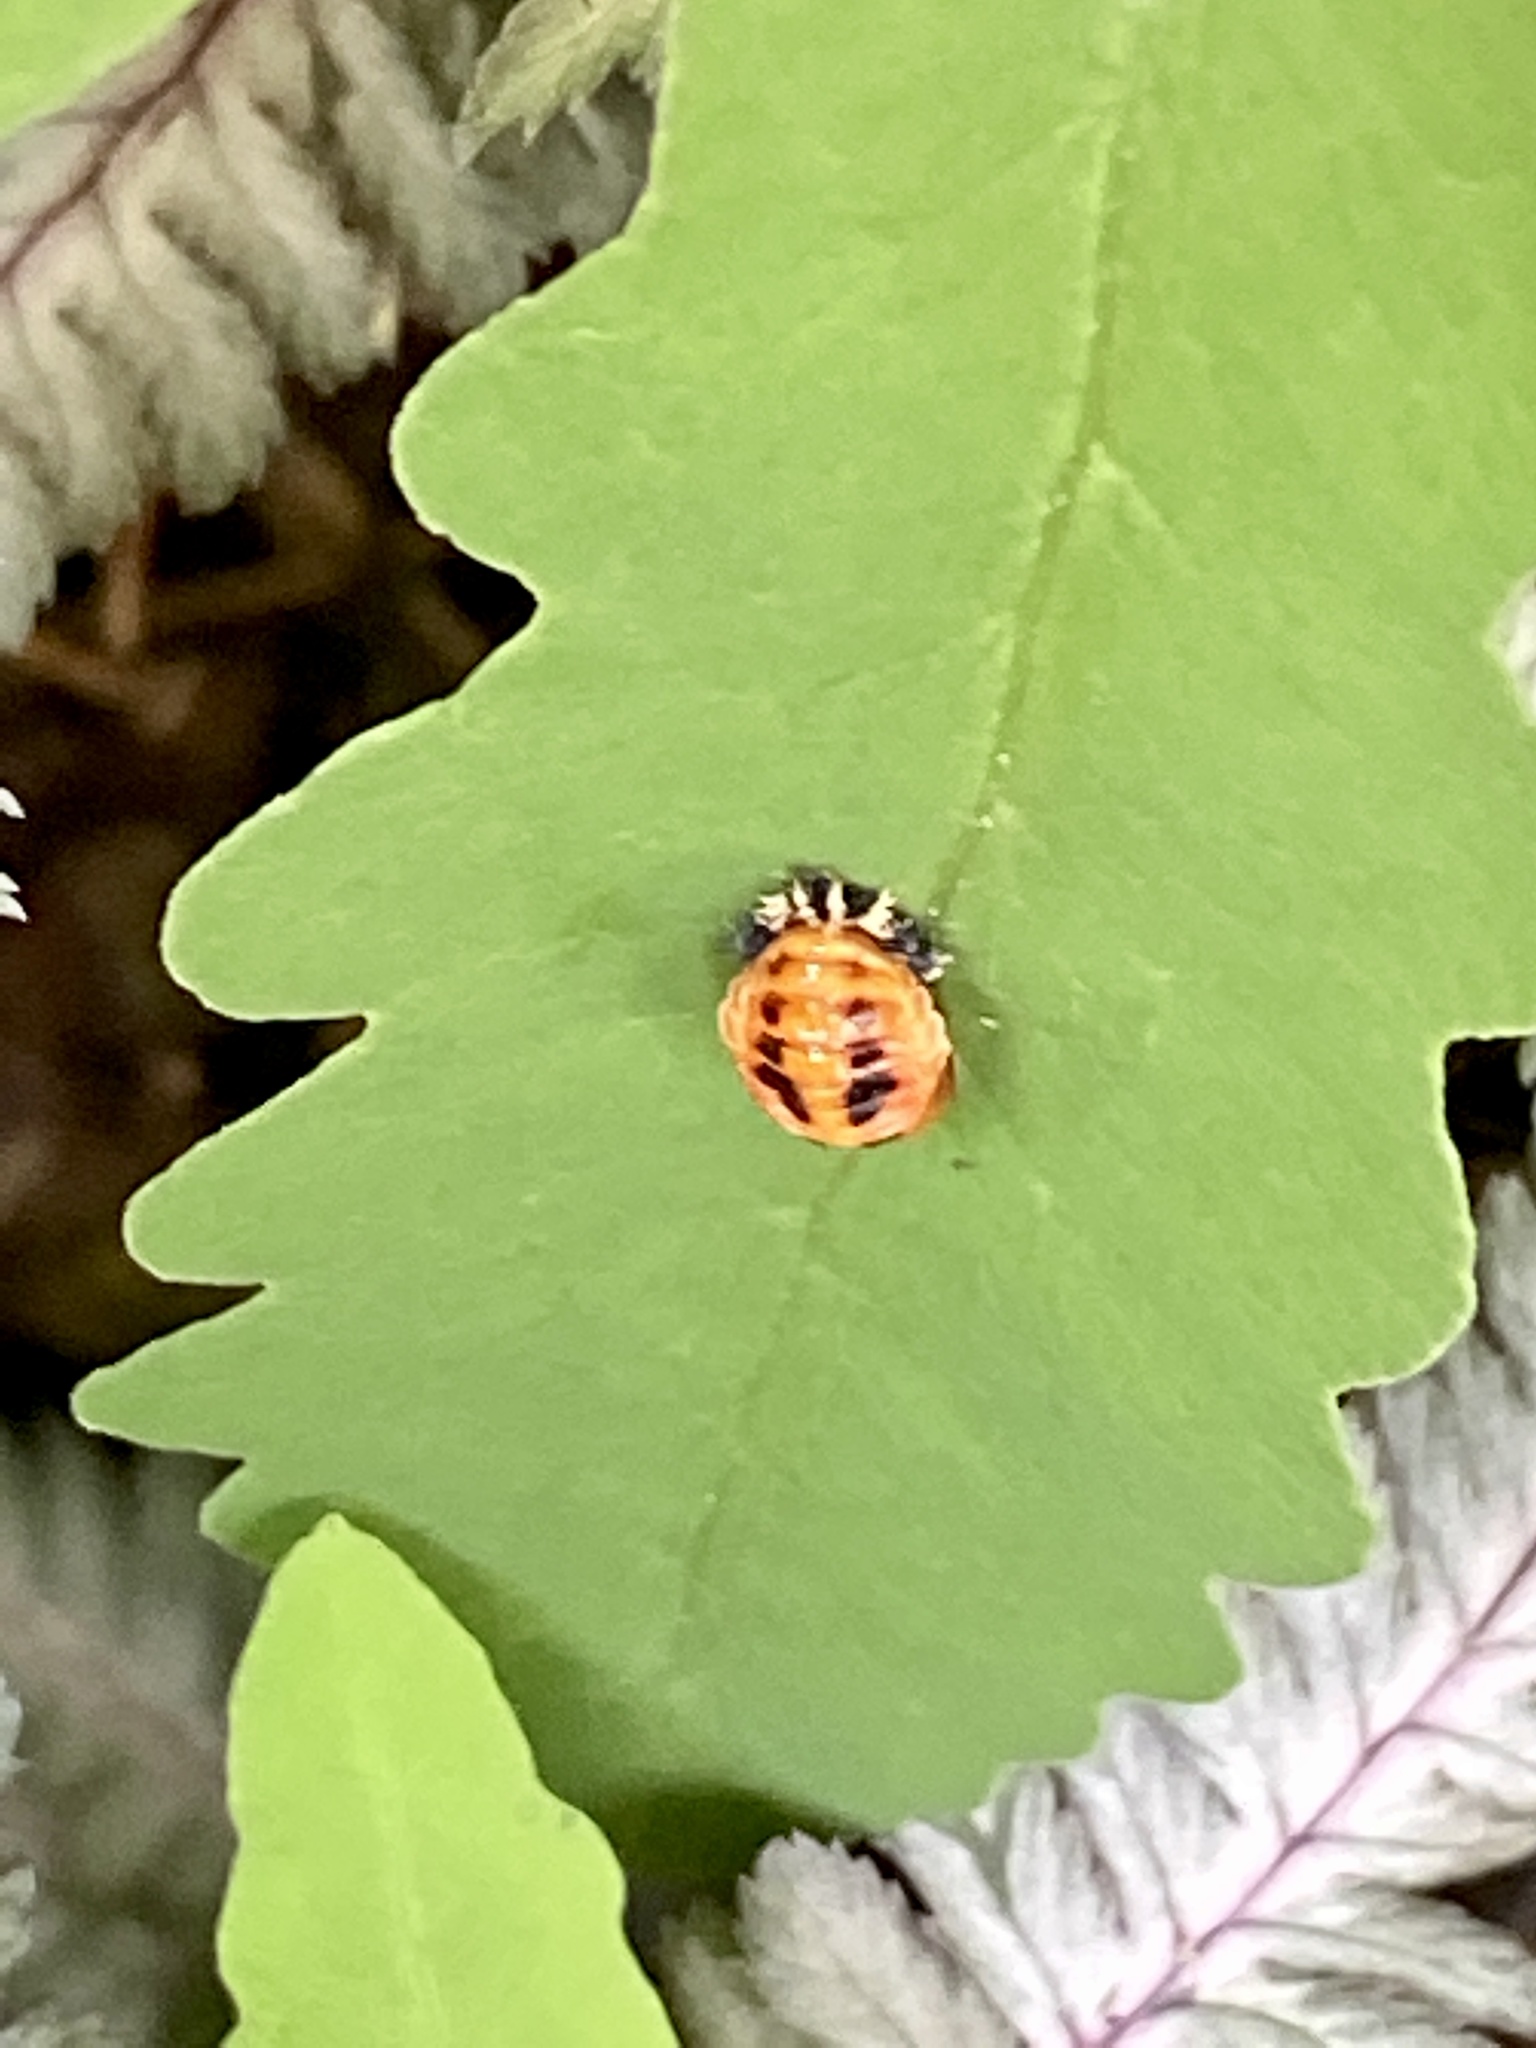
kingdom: Animalia
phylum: Arthropoda
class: Insecta
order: Coleoptera
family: Coccinellidae
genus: Harmonia
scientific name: Harmonia axyridis
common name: Harlequin ladybird
